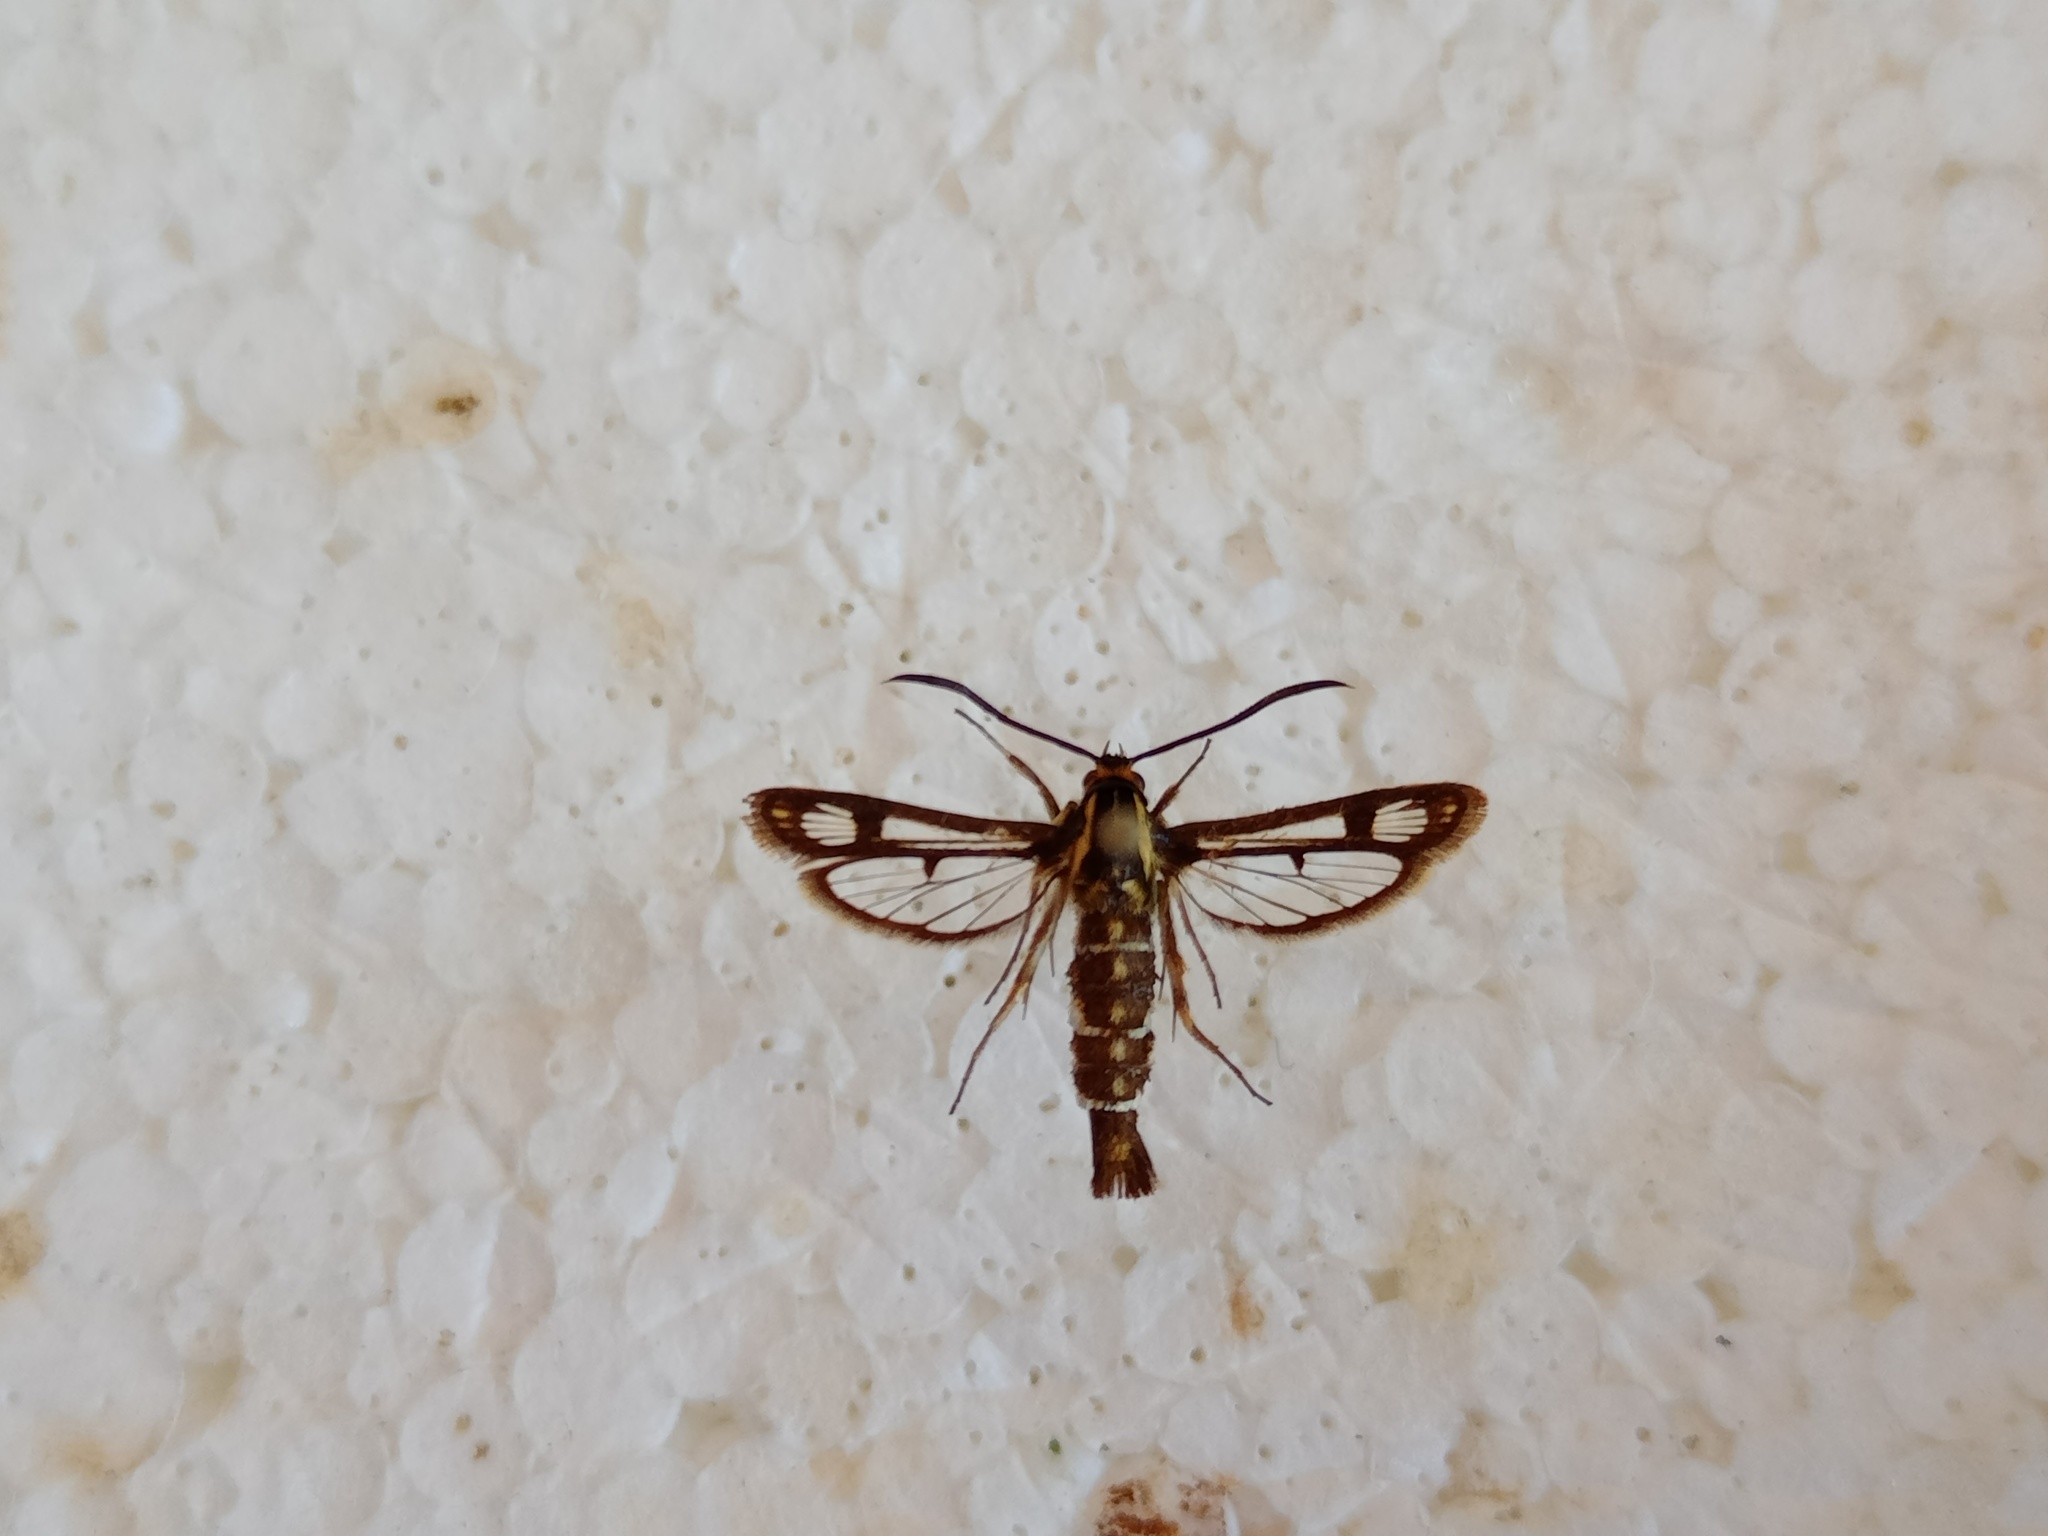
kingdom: Animalia
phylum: Arthropoda
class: Insecta
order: Lepidoptera
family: Sesiidae
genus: Pyropteron
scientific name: Pyropteron triannuliformis
